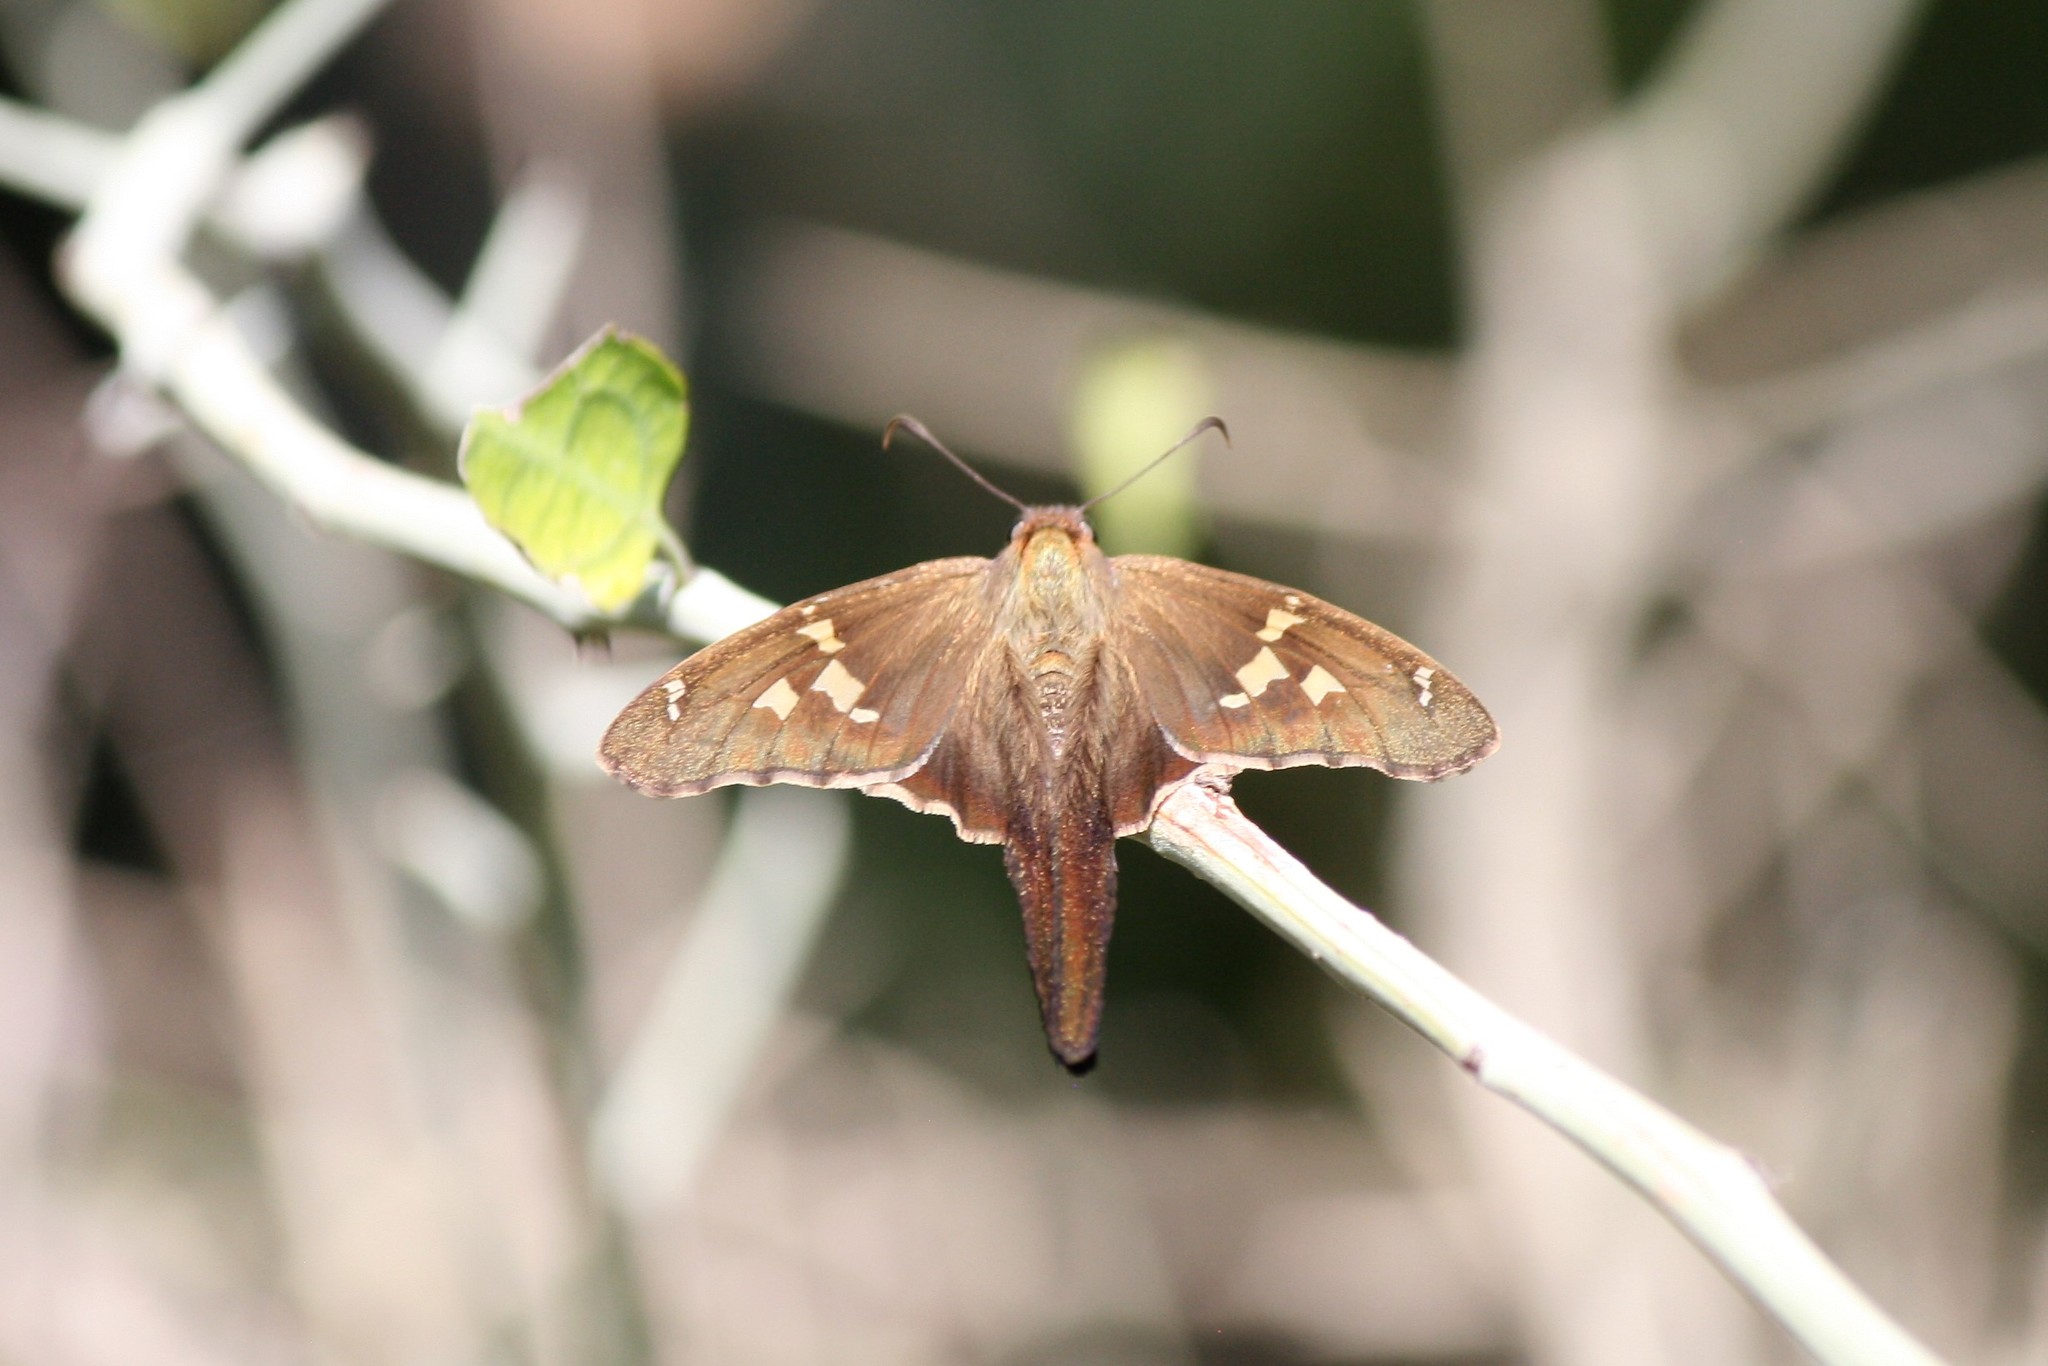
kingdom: Animalia
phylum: Arthropoda
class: Insecta
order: Lepidoptera
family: Hesperiidae
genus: Chioides
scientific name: Chioides catillus
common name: Silverbanded skipper
